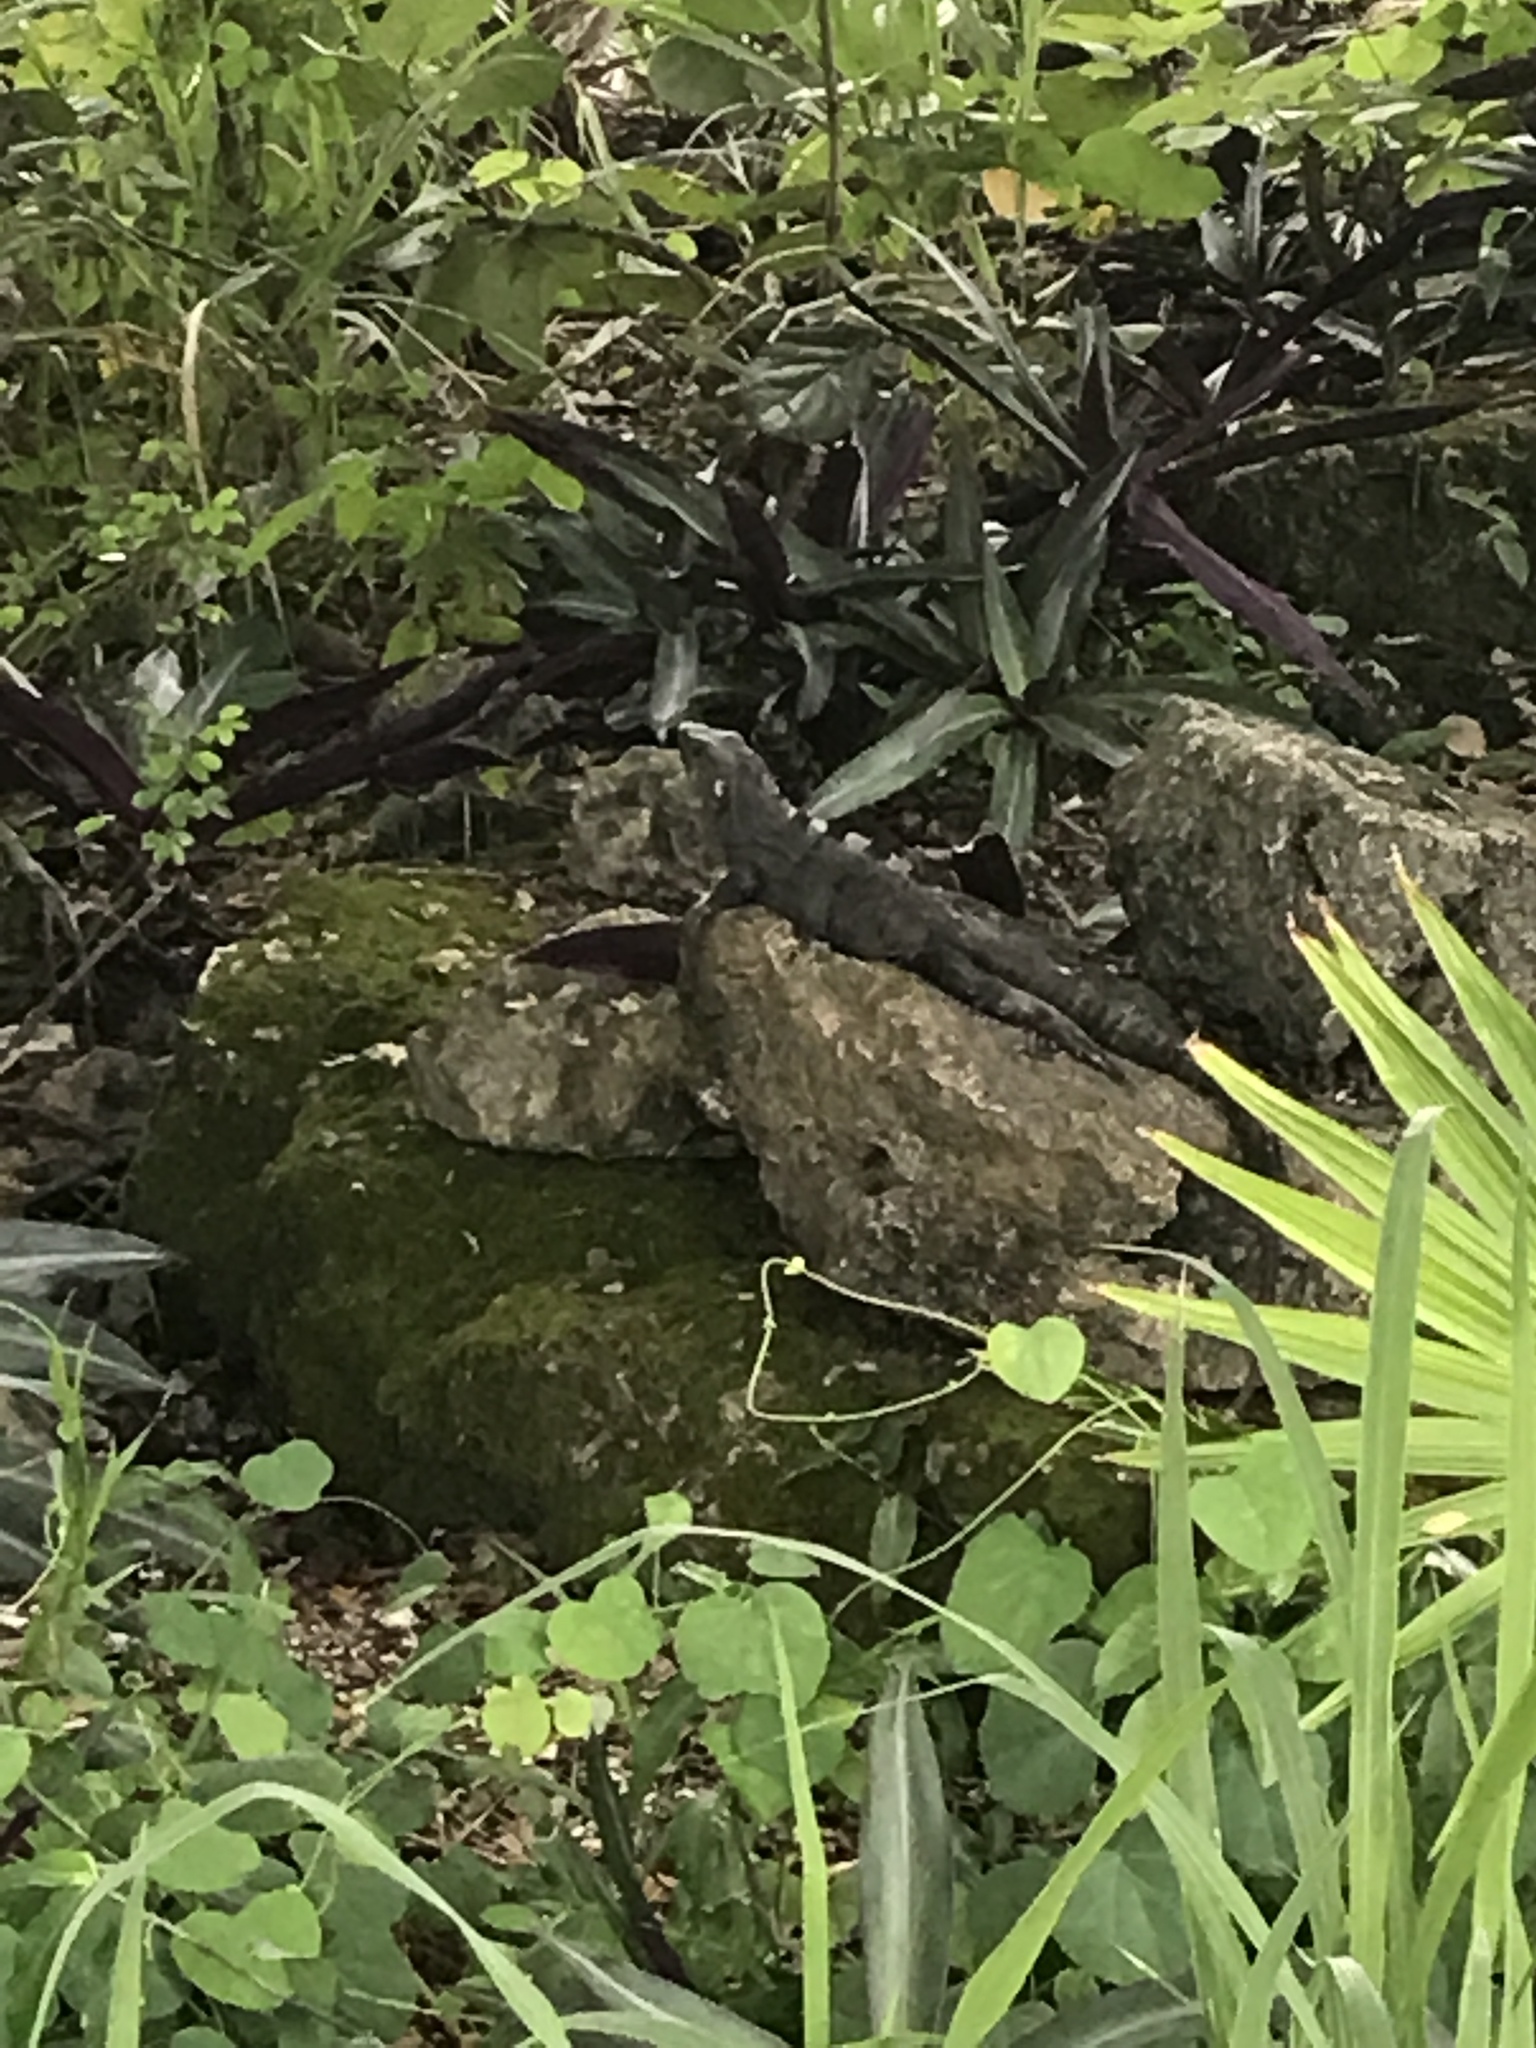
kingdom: Animalia
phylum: Chordata
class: Squamata
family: Iguanidae
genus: Ctenosaura
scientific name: Ctenosaura similis
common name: Black spiny-tailed iguana
